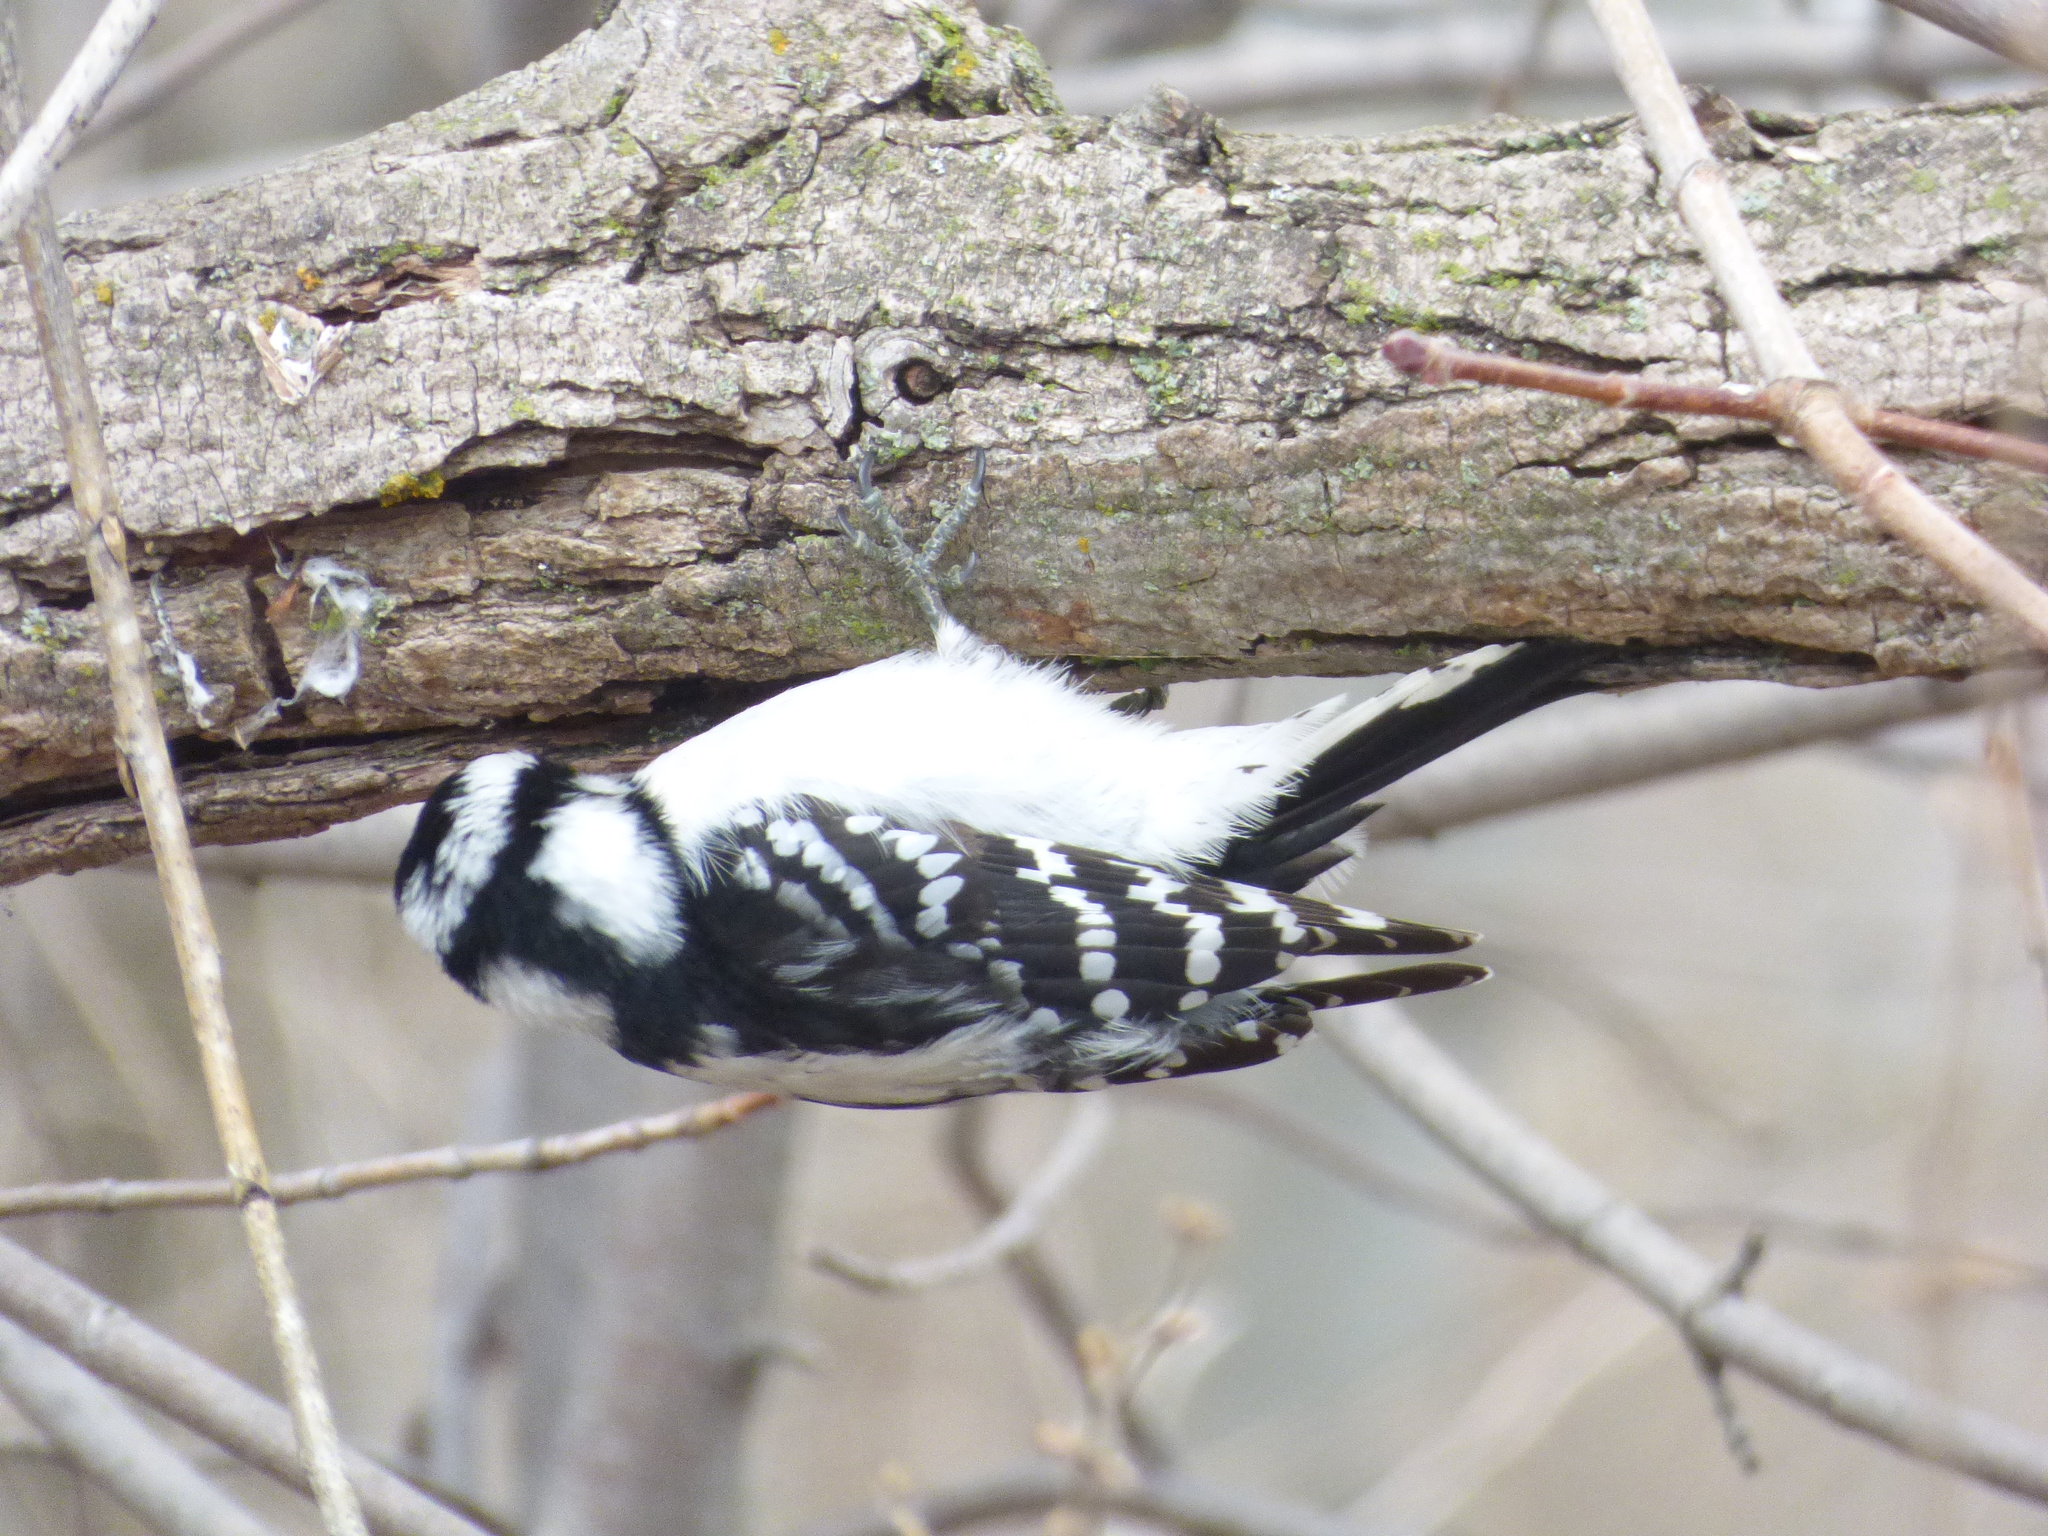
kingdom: Animalia
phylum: Chordata
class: Aves
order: Piciformes
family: Picidae
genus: Dryobates
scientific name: Dryobates pubescens
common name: Downy woodpecker
